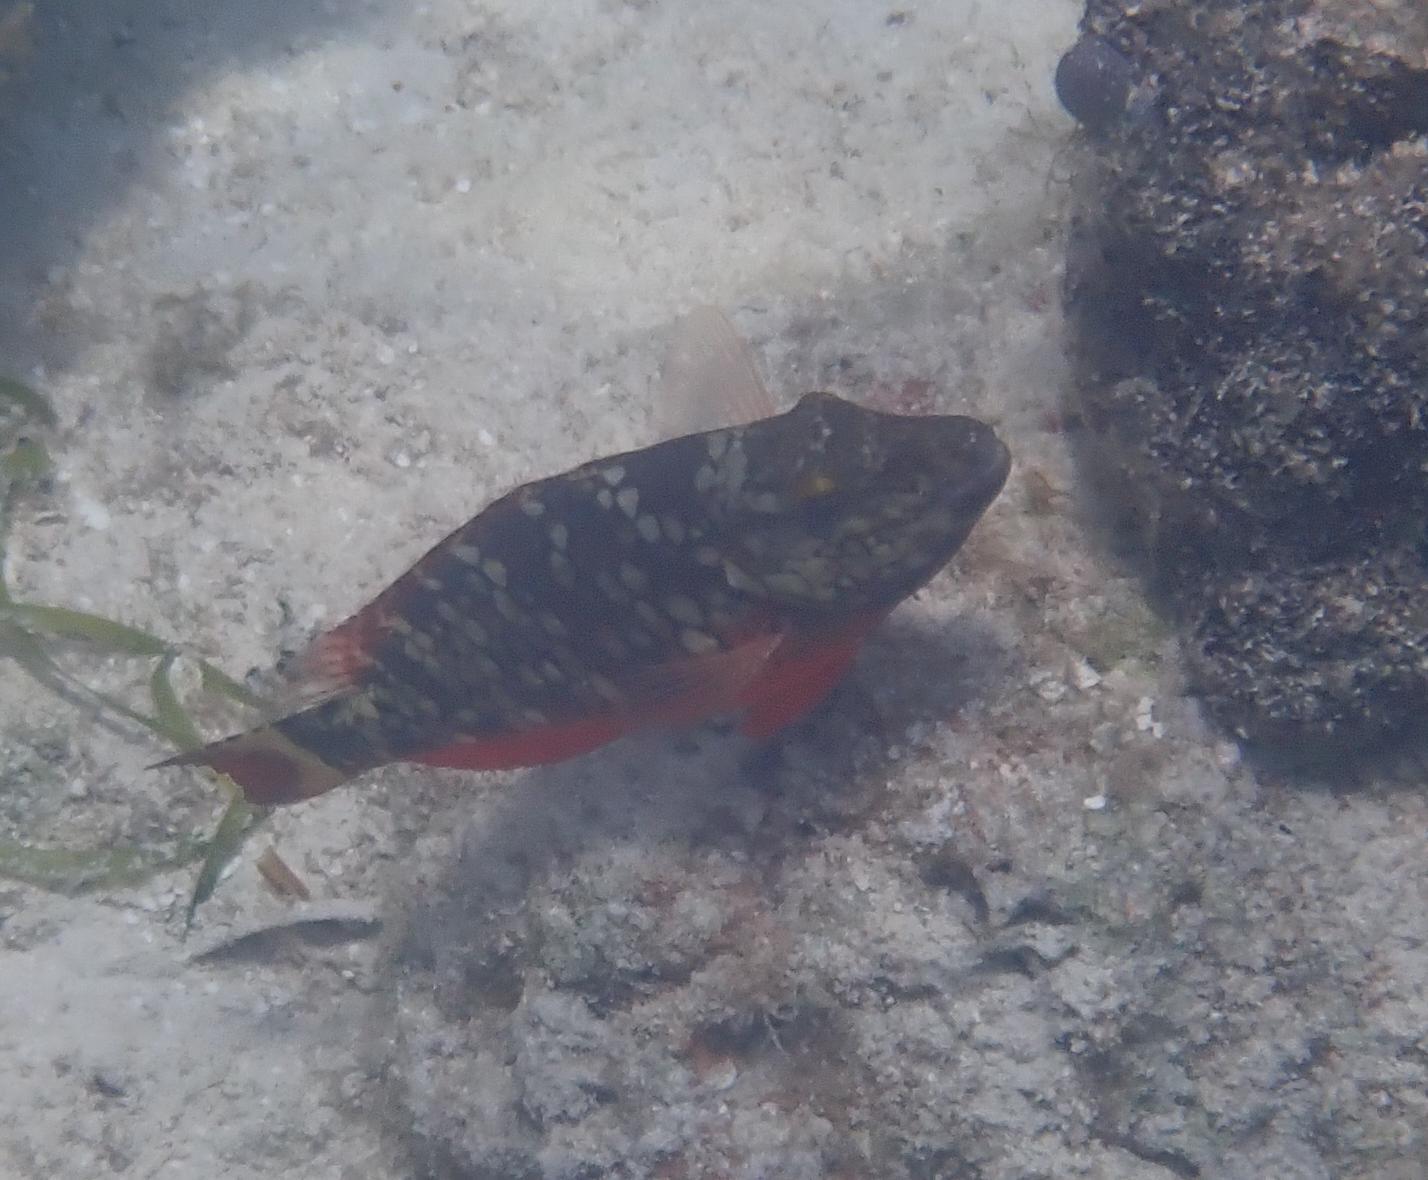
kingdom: Animalia
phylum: Chordata
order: Perciformes
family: Scaridae
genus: Sparisoma
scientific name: Sparisoma viride
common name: Stoplight parrotfish
